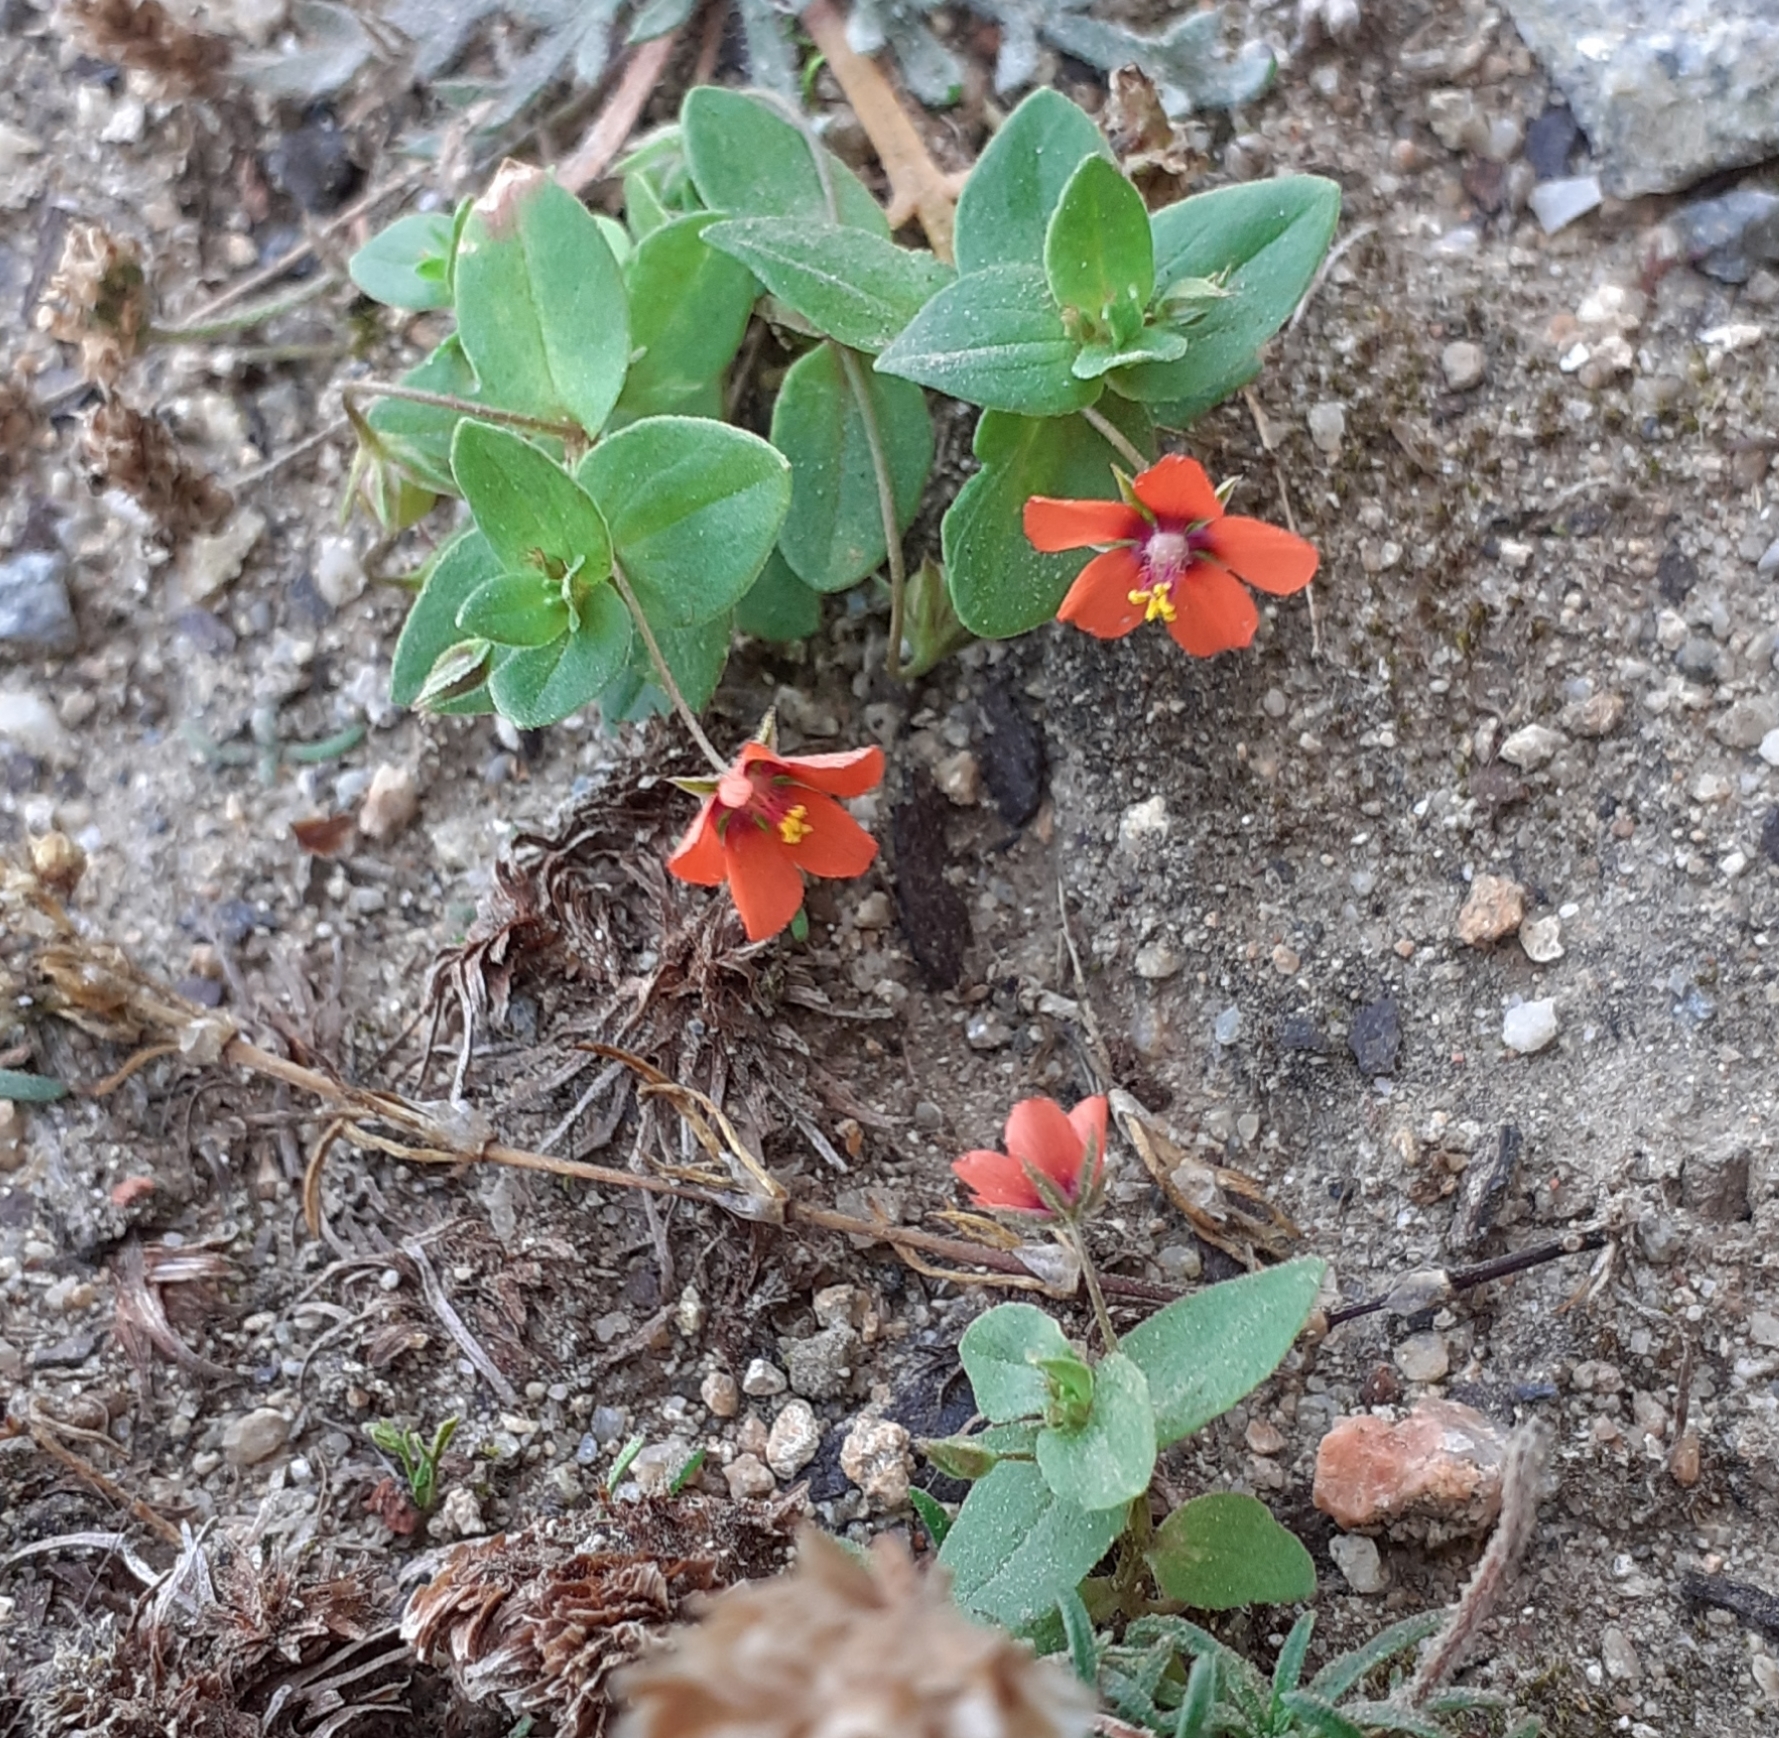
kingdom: Plantae
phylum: Tracheophyta
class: Magnoliopsida
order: Ericales
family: Primulaceae
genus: Lysimachia
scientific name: Lysimachia arvensis
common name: Scarlet pimpernel
